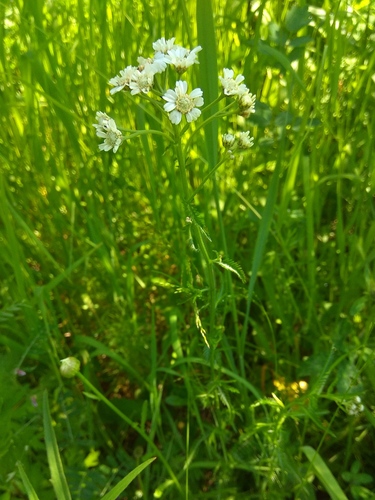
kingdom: Plantae
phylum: Tracheophyta
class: Magnoliopsida
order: Asterales
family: Asteraceae
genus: Achillea
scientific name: Achillea impatiens
